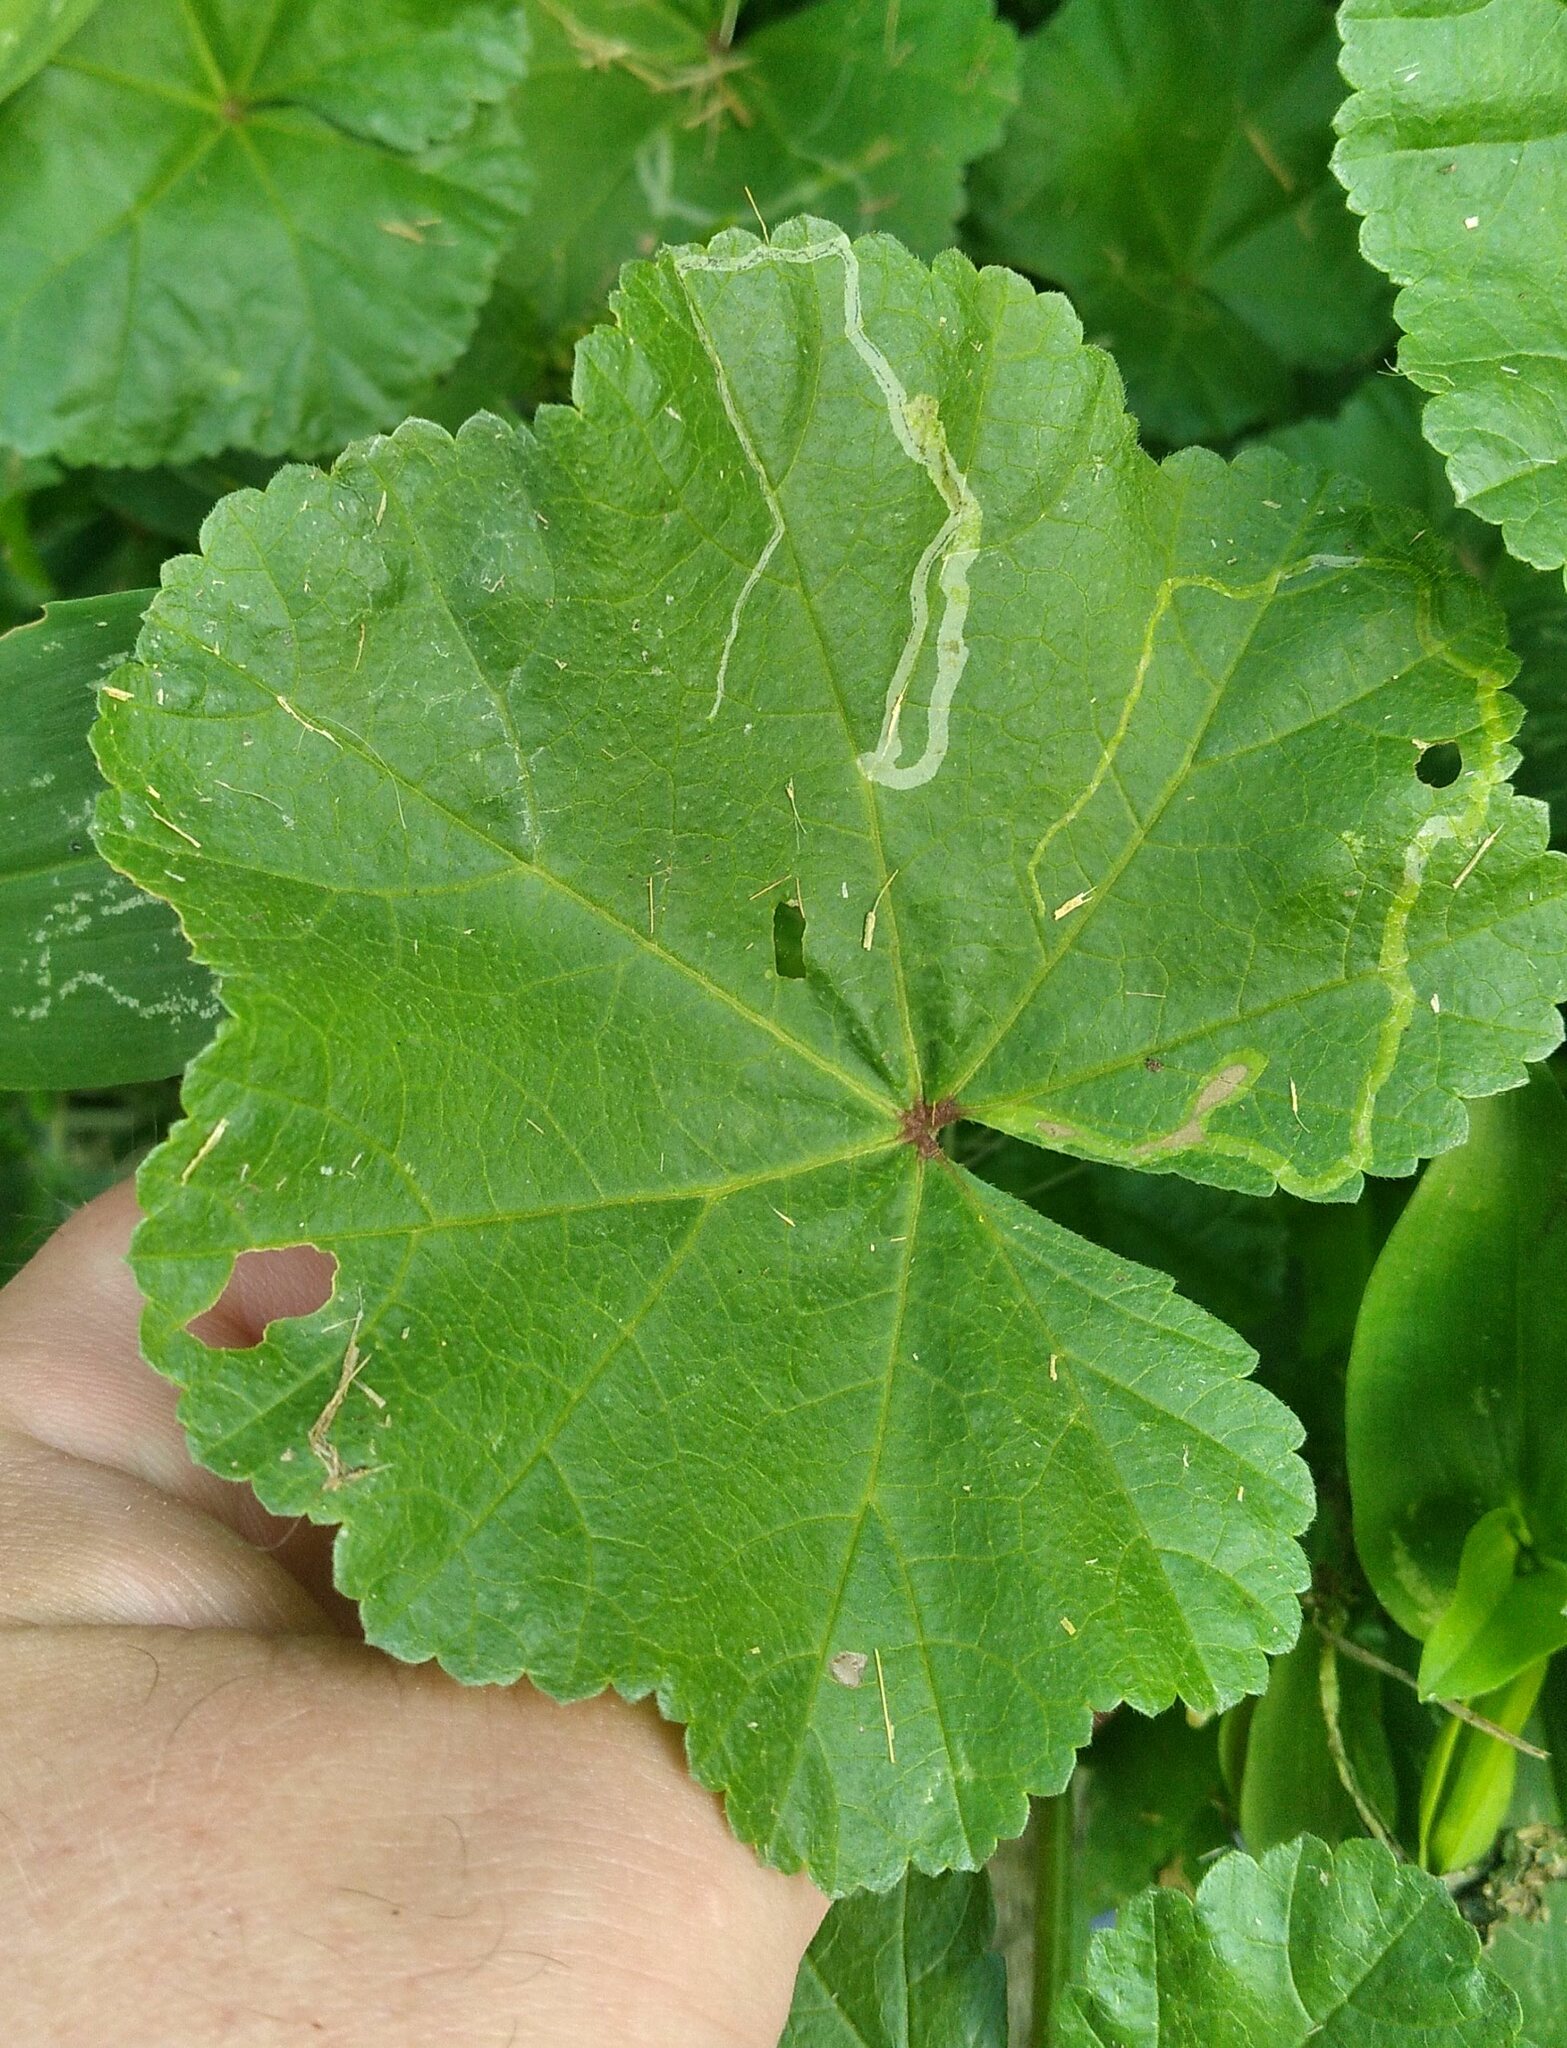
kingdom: Animalia
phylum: Arthropoda
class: Insecta
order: Diptera
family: Agromyzidae
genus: Calycomyza
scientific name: Calycomyza malvae
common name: Mallow leaf miner
